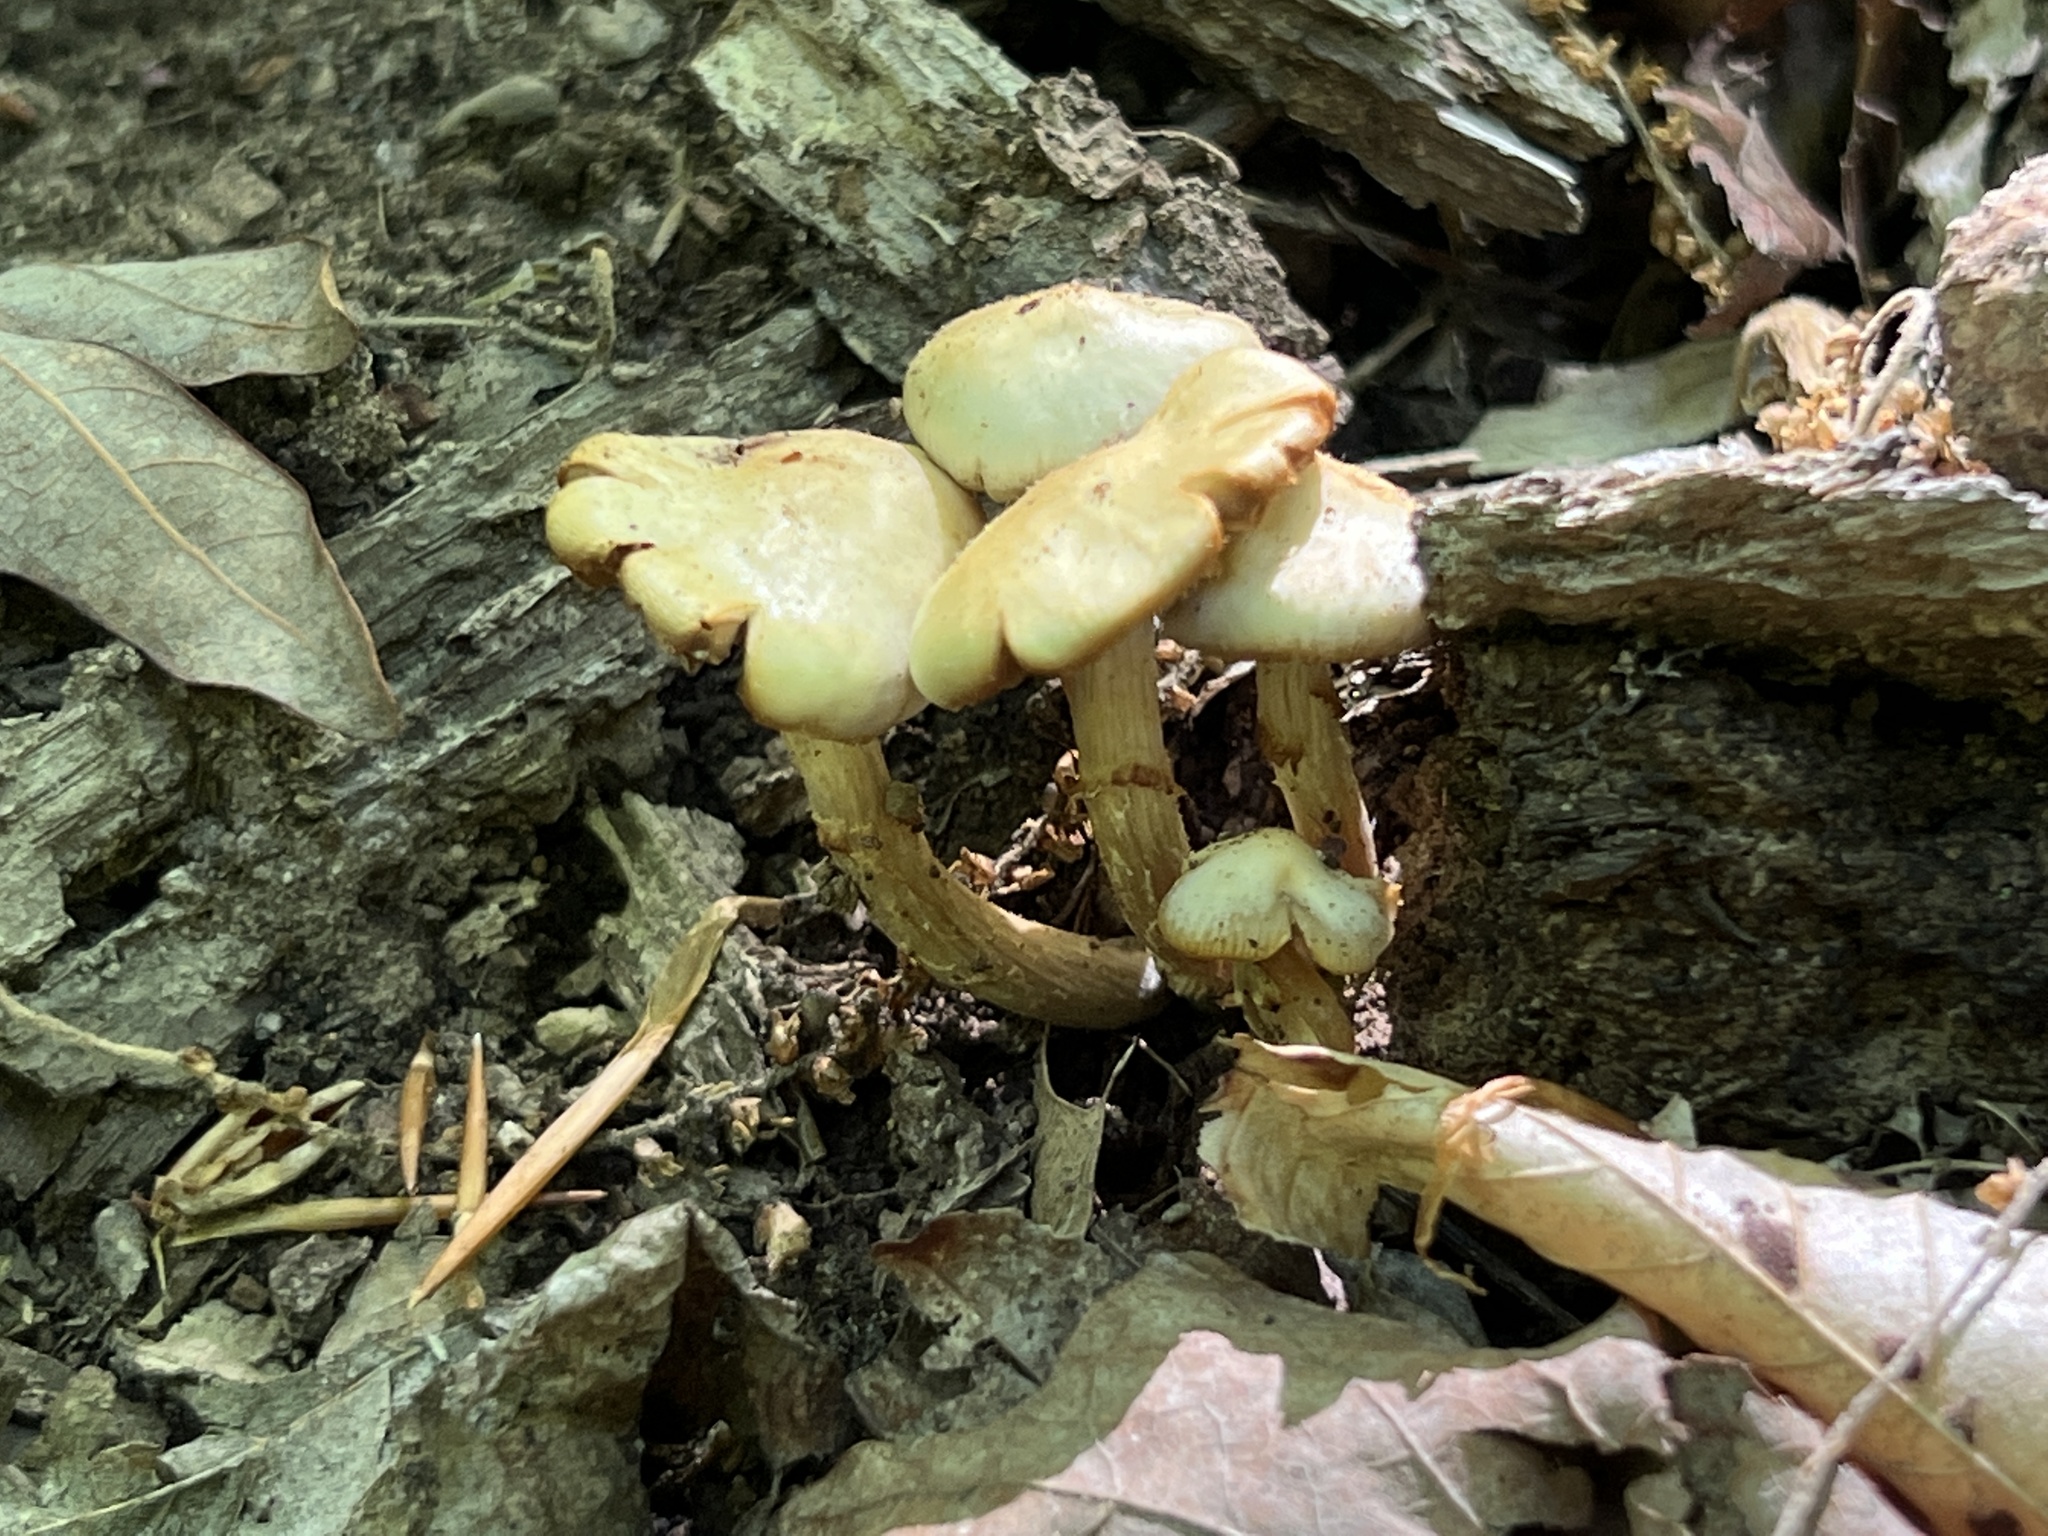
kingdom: Fungi
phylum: Basidiomycota
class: Agaricomycetes
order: Agaricales
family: Strophariaceae
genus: Kuehneromyces
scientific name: Kuehneromyces marginellus
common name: Sheathed woodtuft
